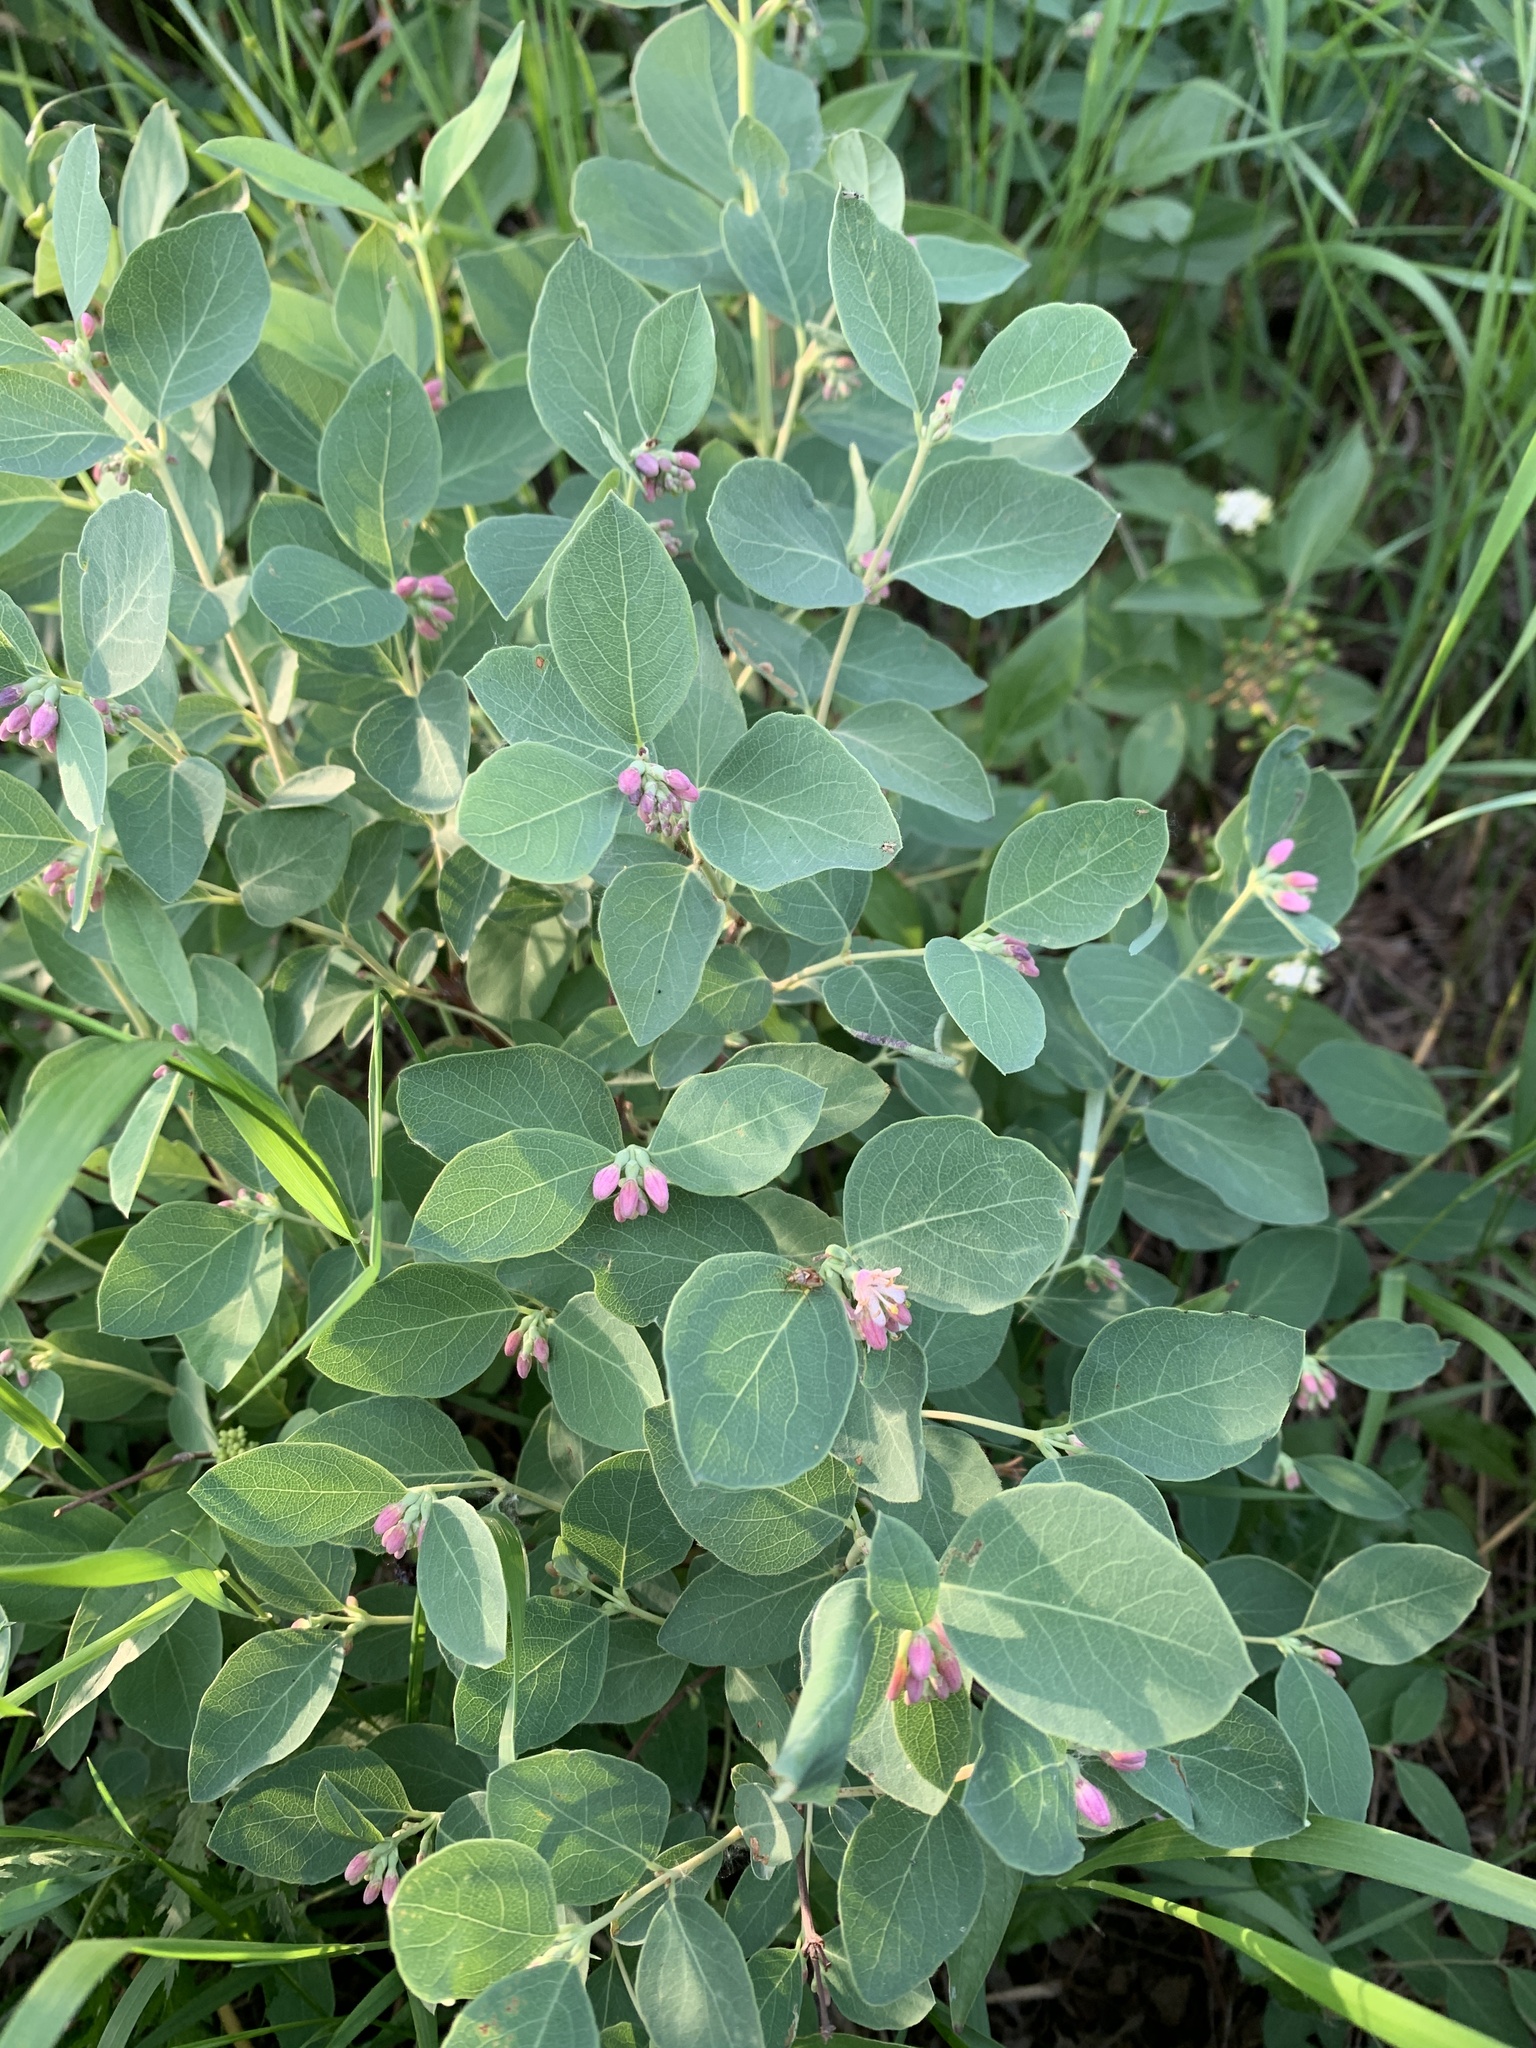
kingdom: Plantae
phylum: Tracheophyta
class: Magnoliopsida
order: Dipsacales
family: Caprifoliaceae
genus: Symphoricarpos
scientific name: Symphoricarpos occidentalis
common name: Wolfberry
